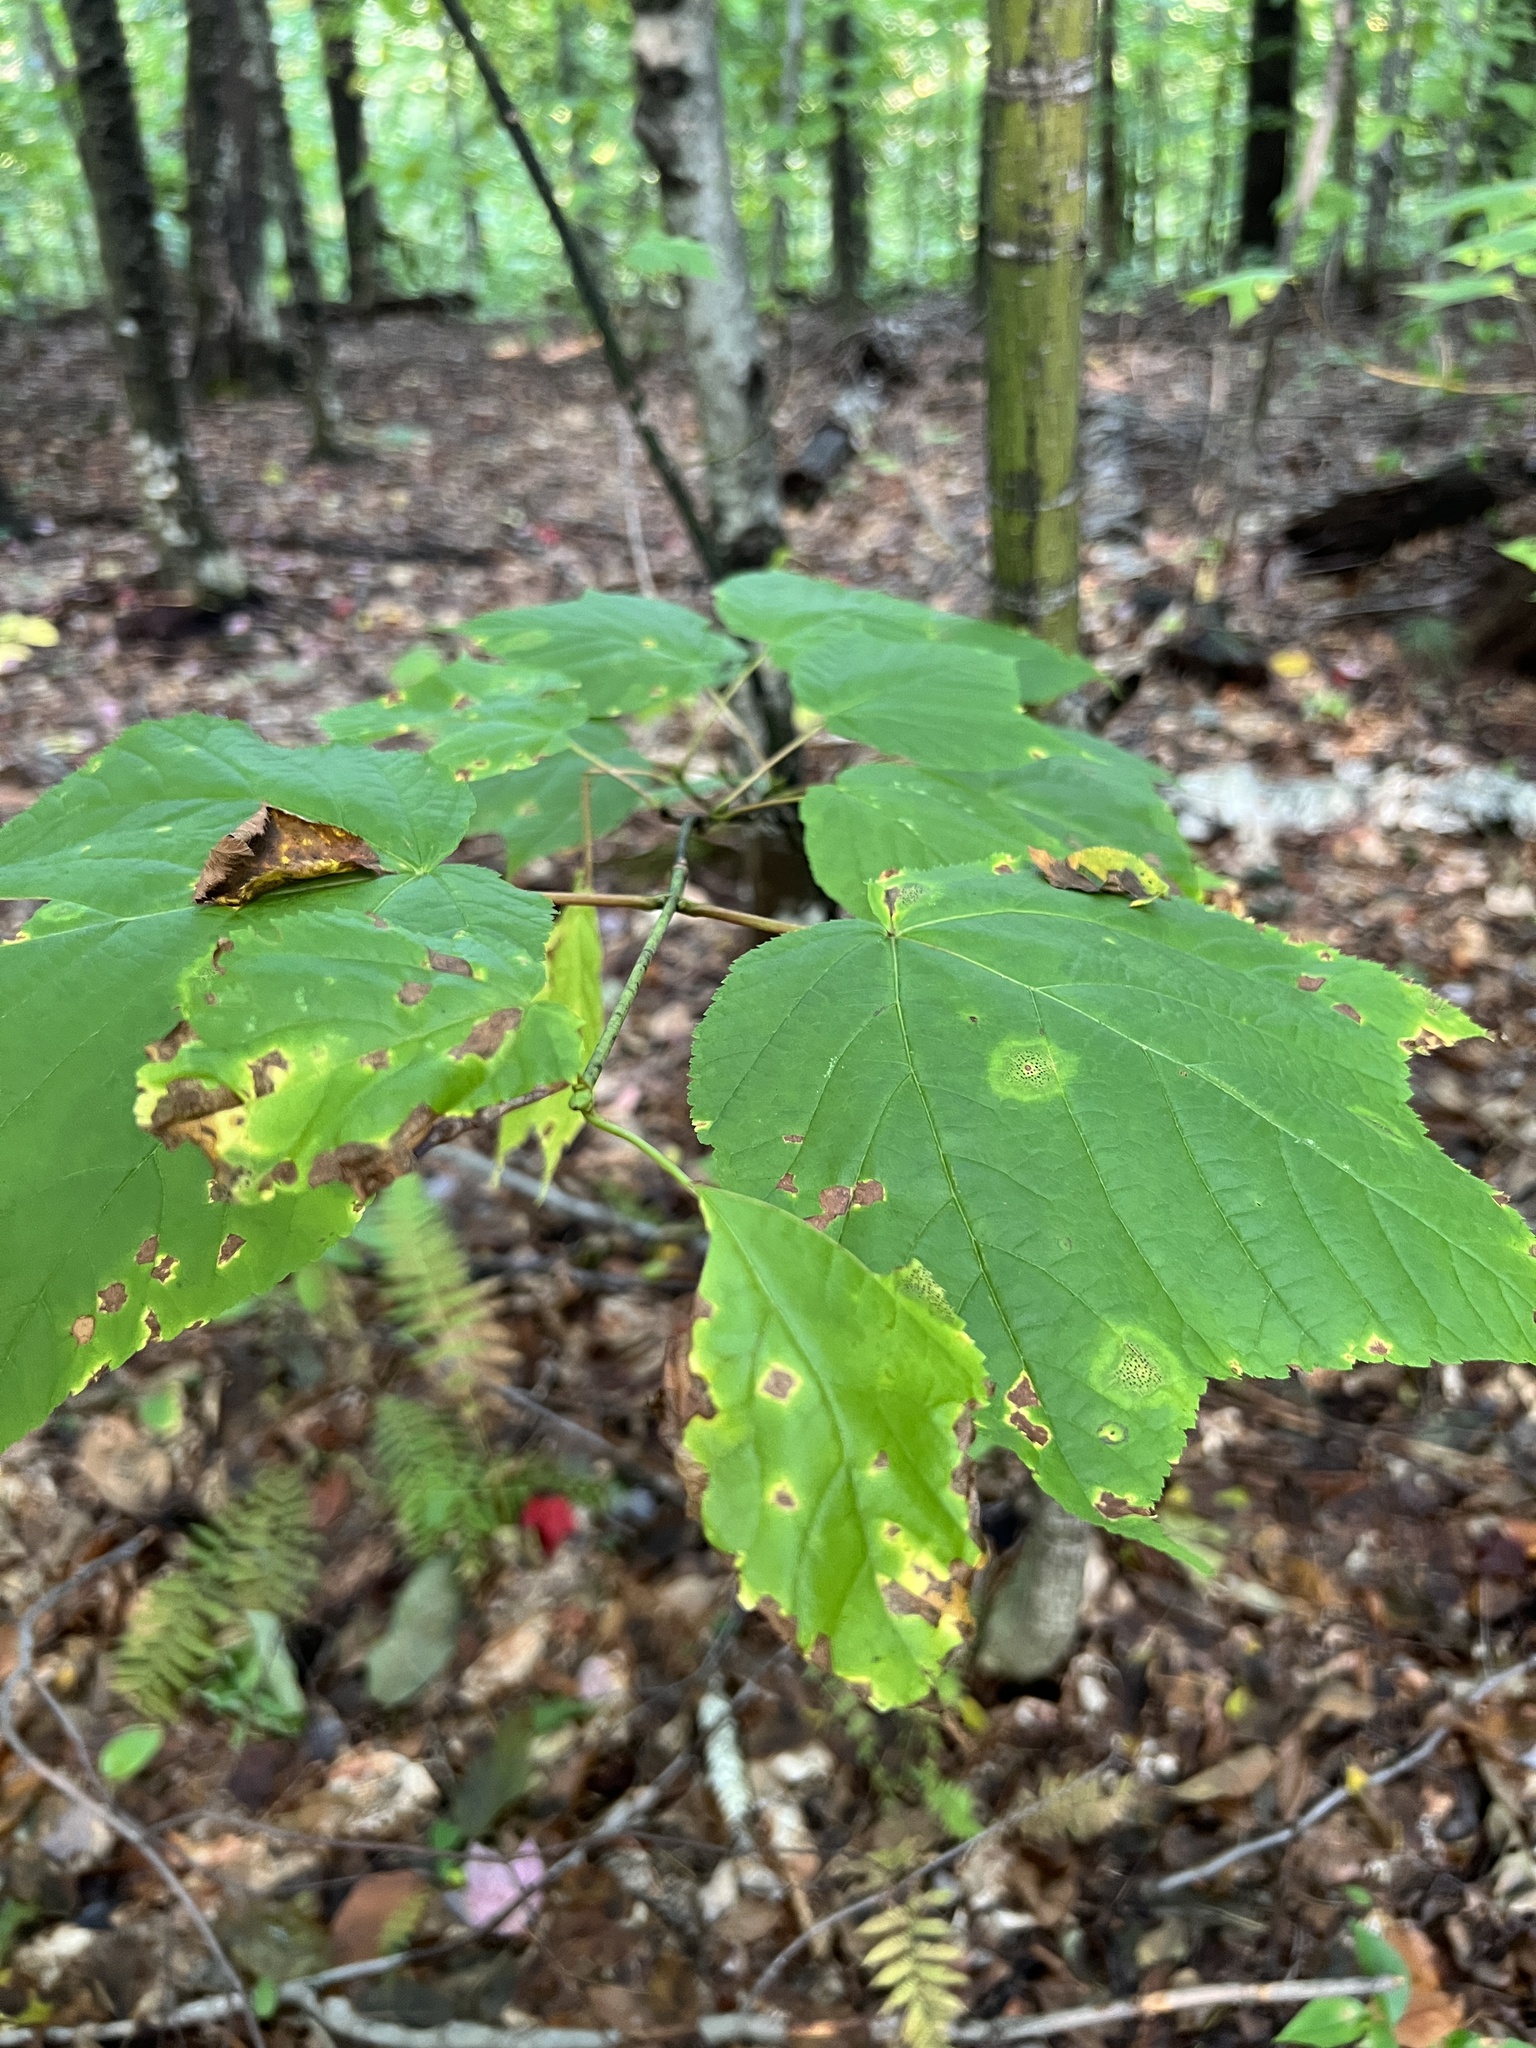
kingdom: Plantae
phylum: Tracheophyta
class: Magnoliopsida
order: Sapindales
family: Sapindaceae
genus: Acer
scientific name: Acer pensylvanicum
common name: Moosewood
